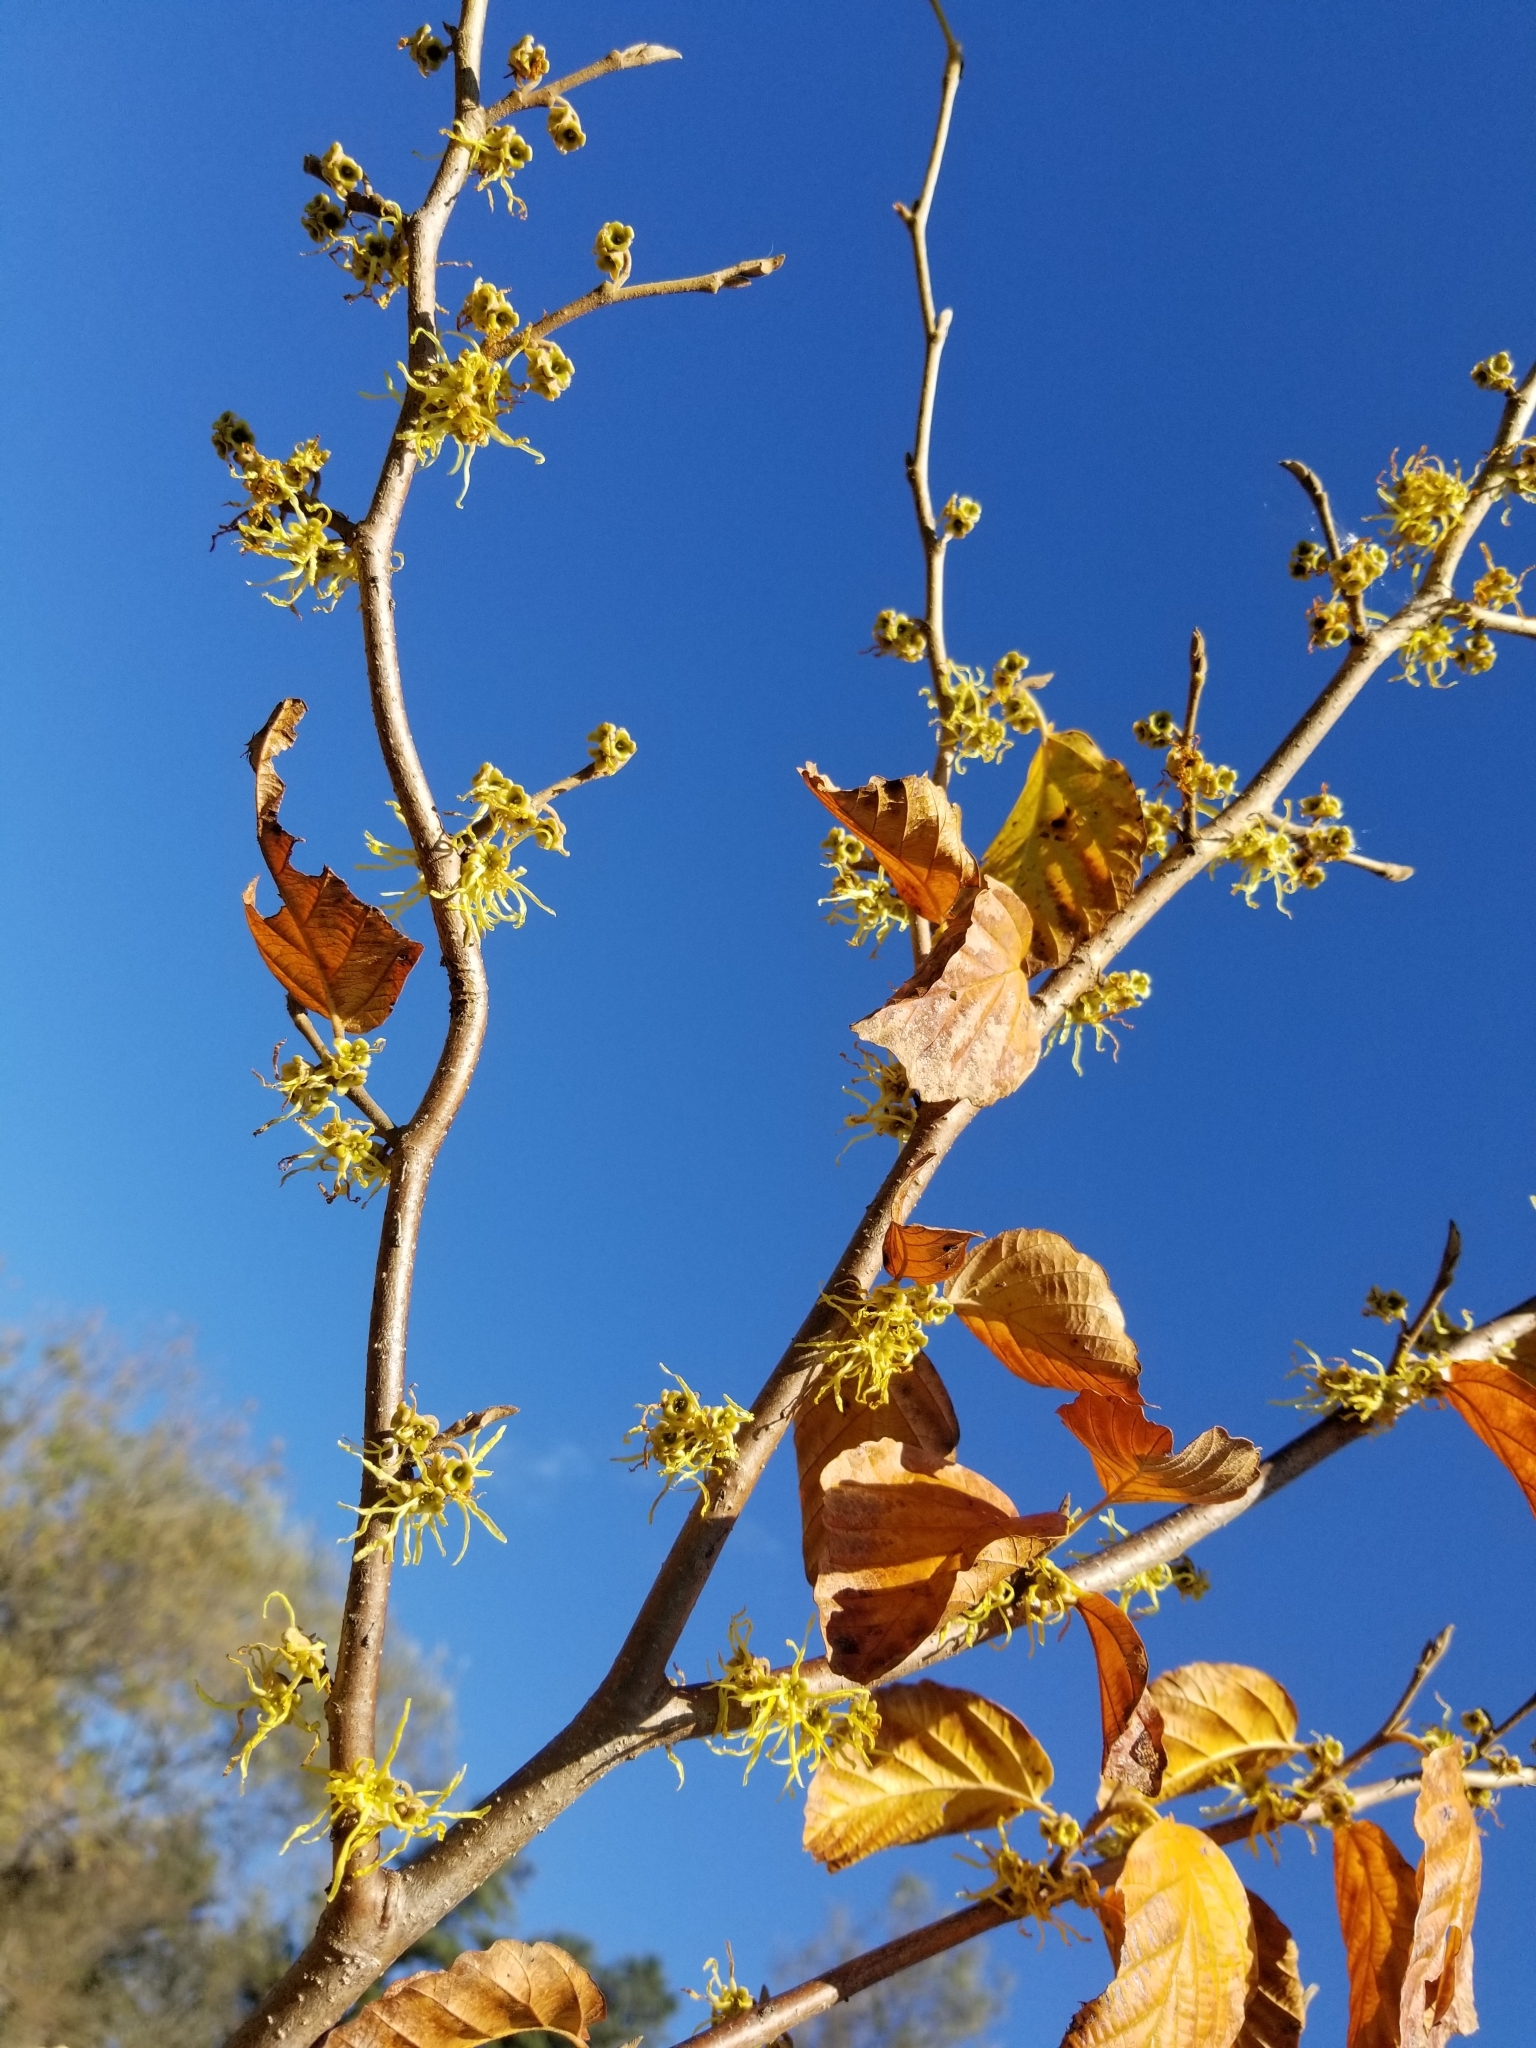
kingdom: Plantae
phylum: Tracheophyta
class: Magnoliopsida
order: Saxifragales
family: Hamamelidaceae
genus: Hamamelis
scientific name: Hamamelis virginiana
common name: Witch-hazel
